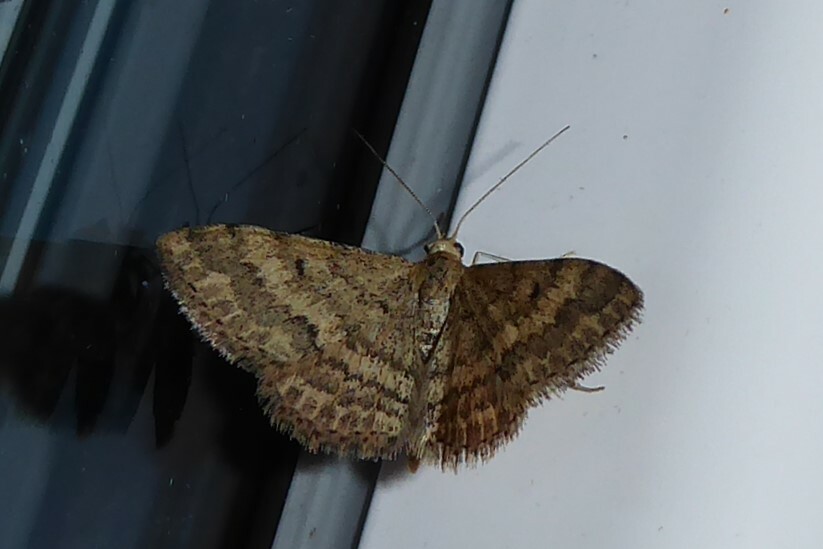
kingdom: Animalia
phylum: Arthropoda
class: Insecta
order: Lepidoptera
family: Geometridae
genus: Scopula
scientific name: Scopula rubraria
